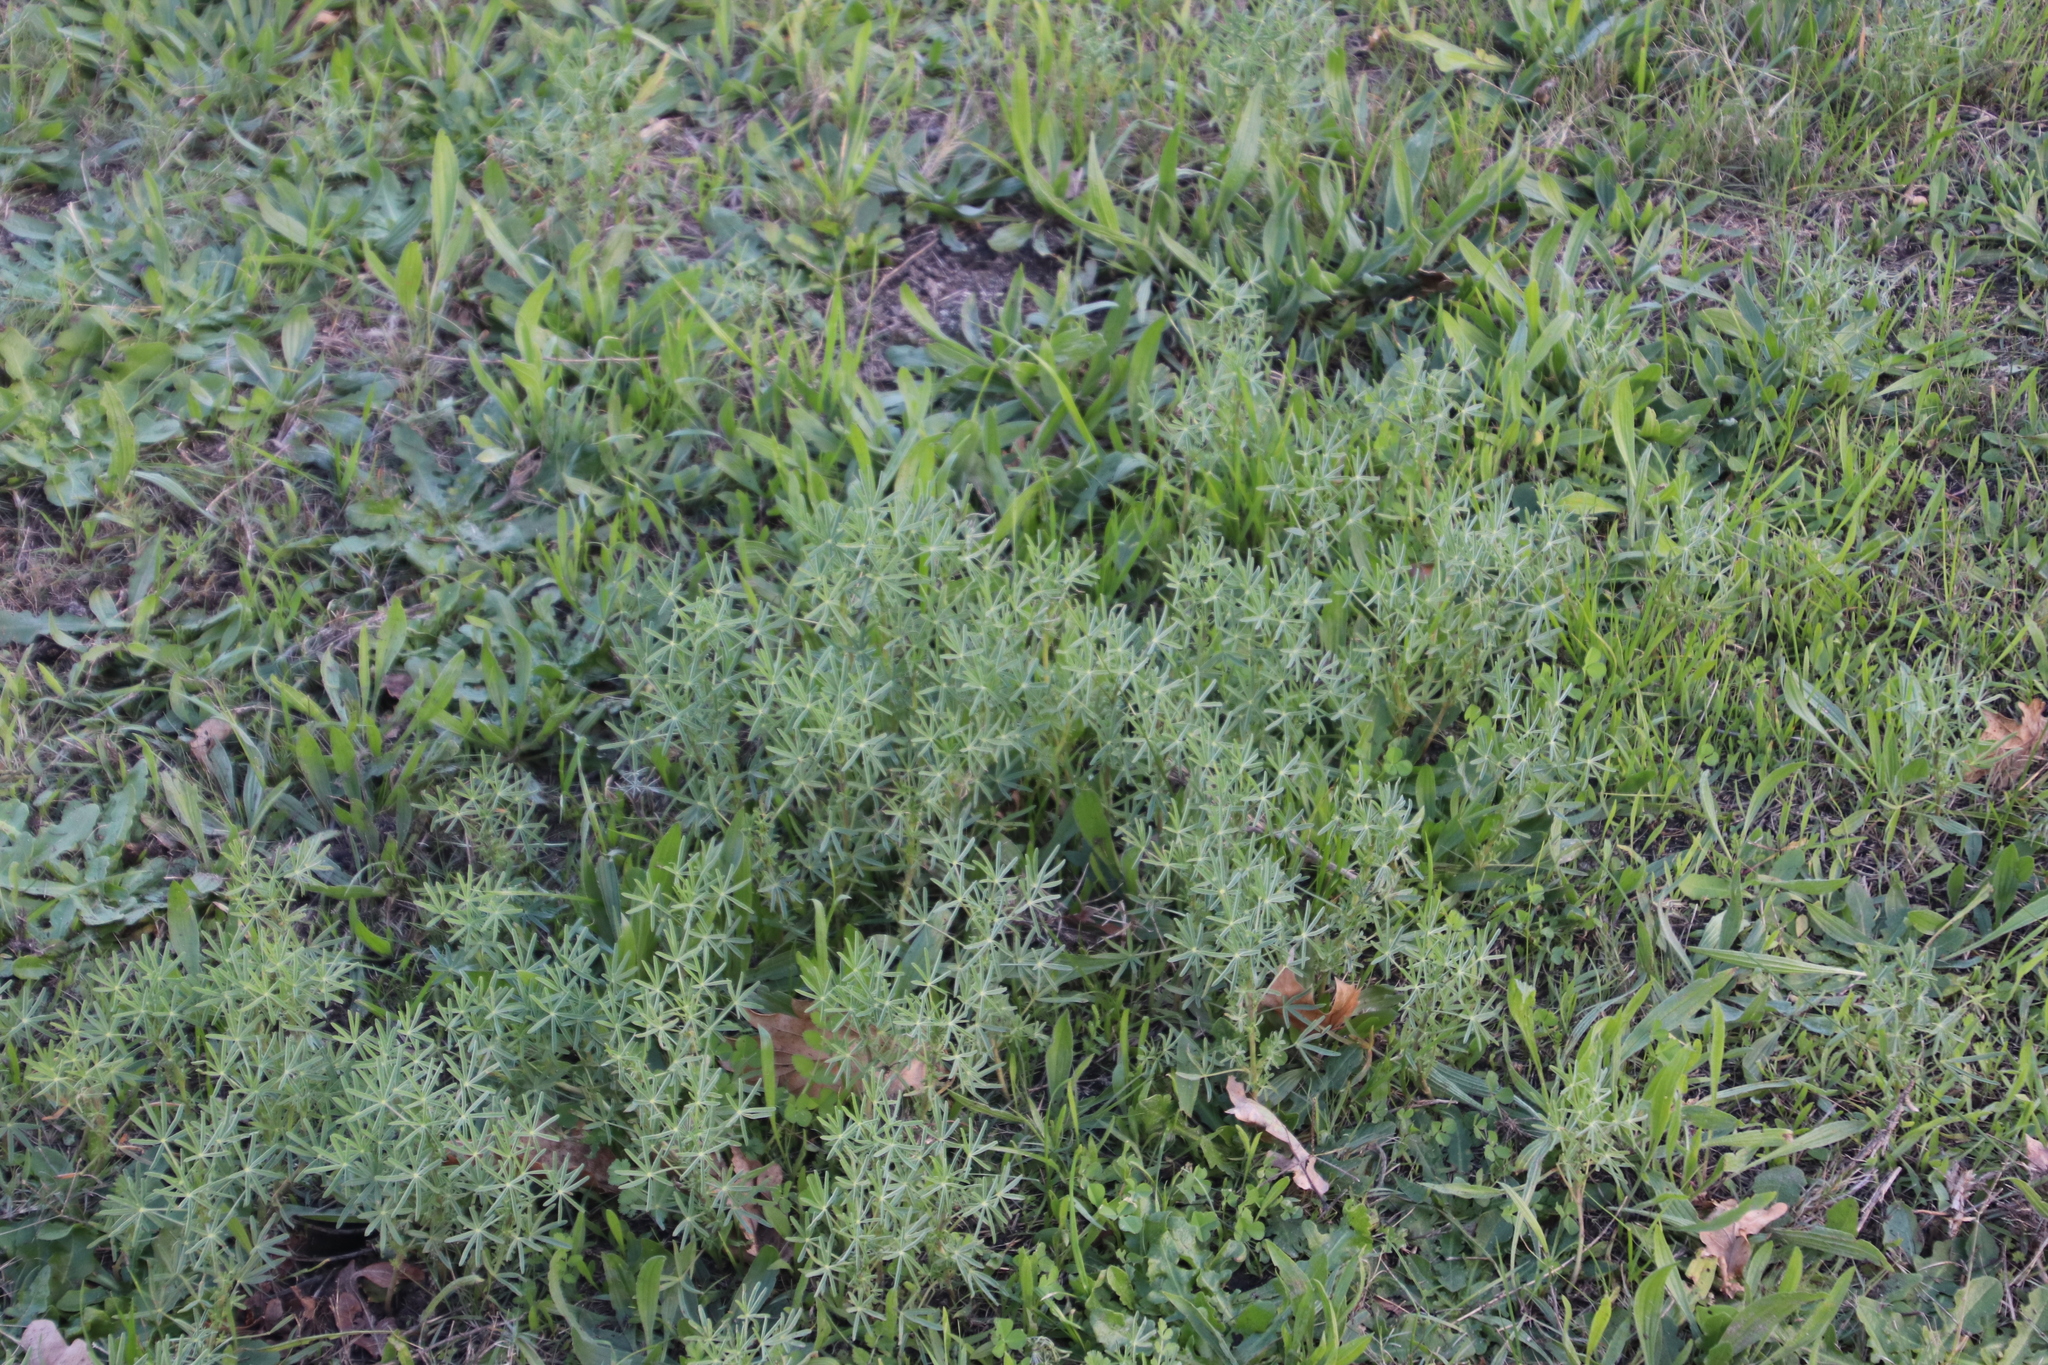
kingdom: Plantae
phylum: Tracheophyta
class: Magnoliopsida
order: Fabales
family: Fabaceae
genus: Lupinus
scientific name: Lupinus angustifolius
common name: Narrow-leaved lupin
